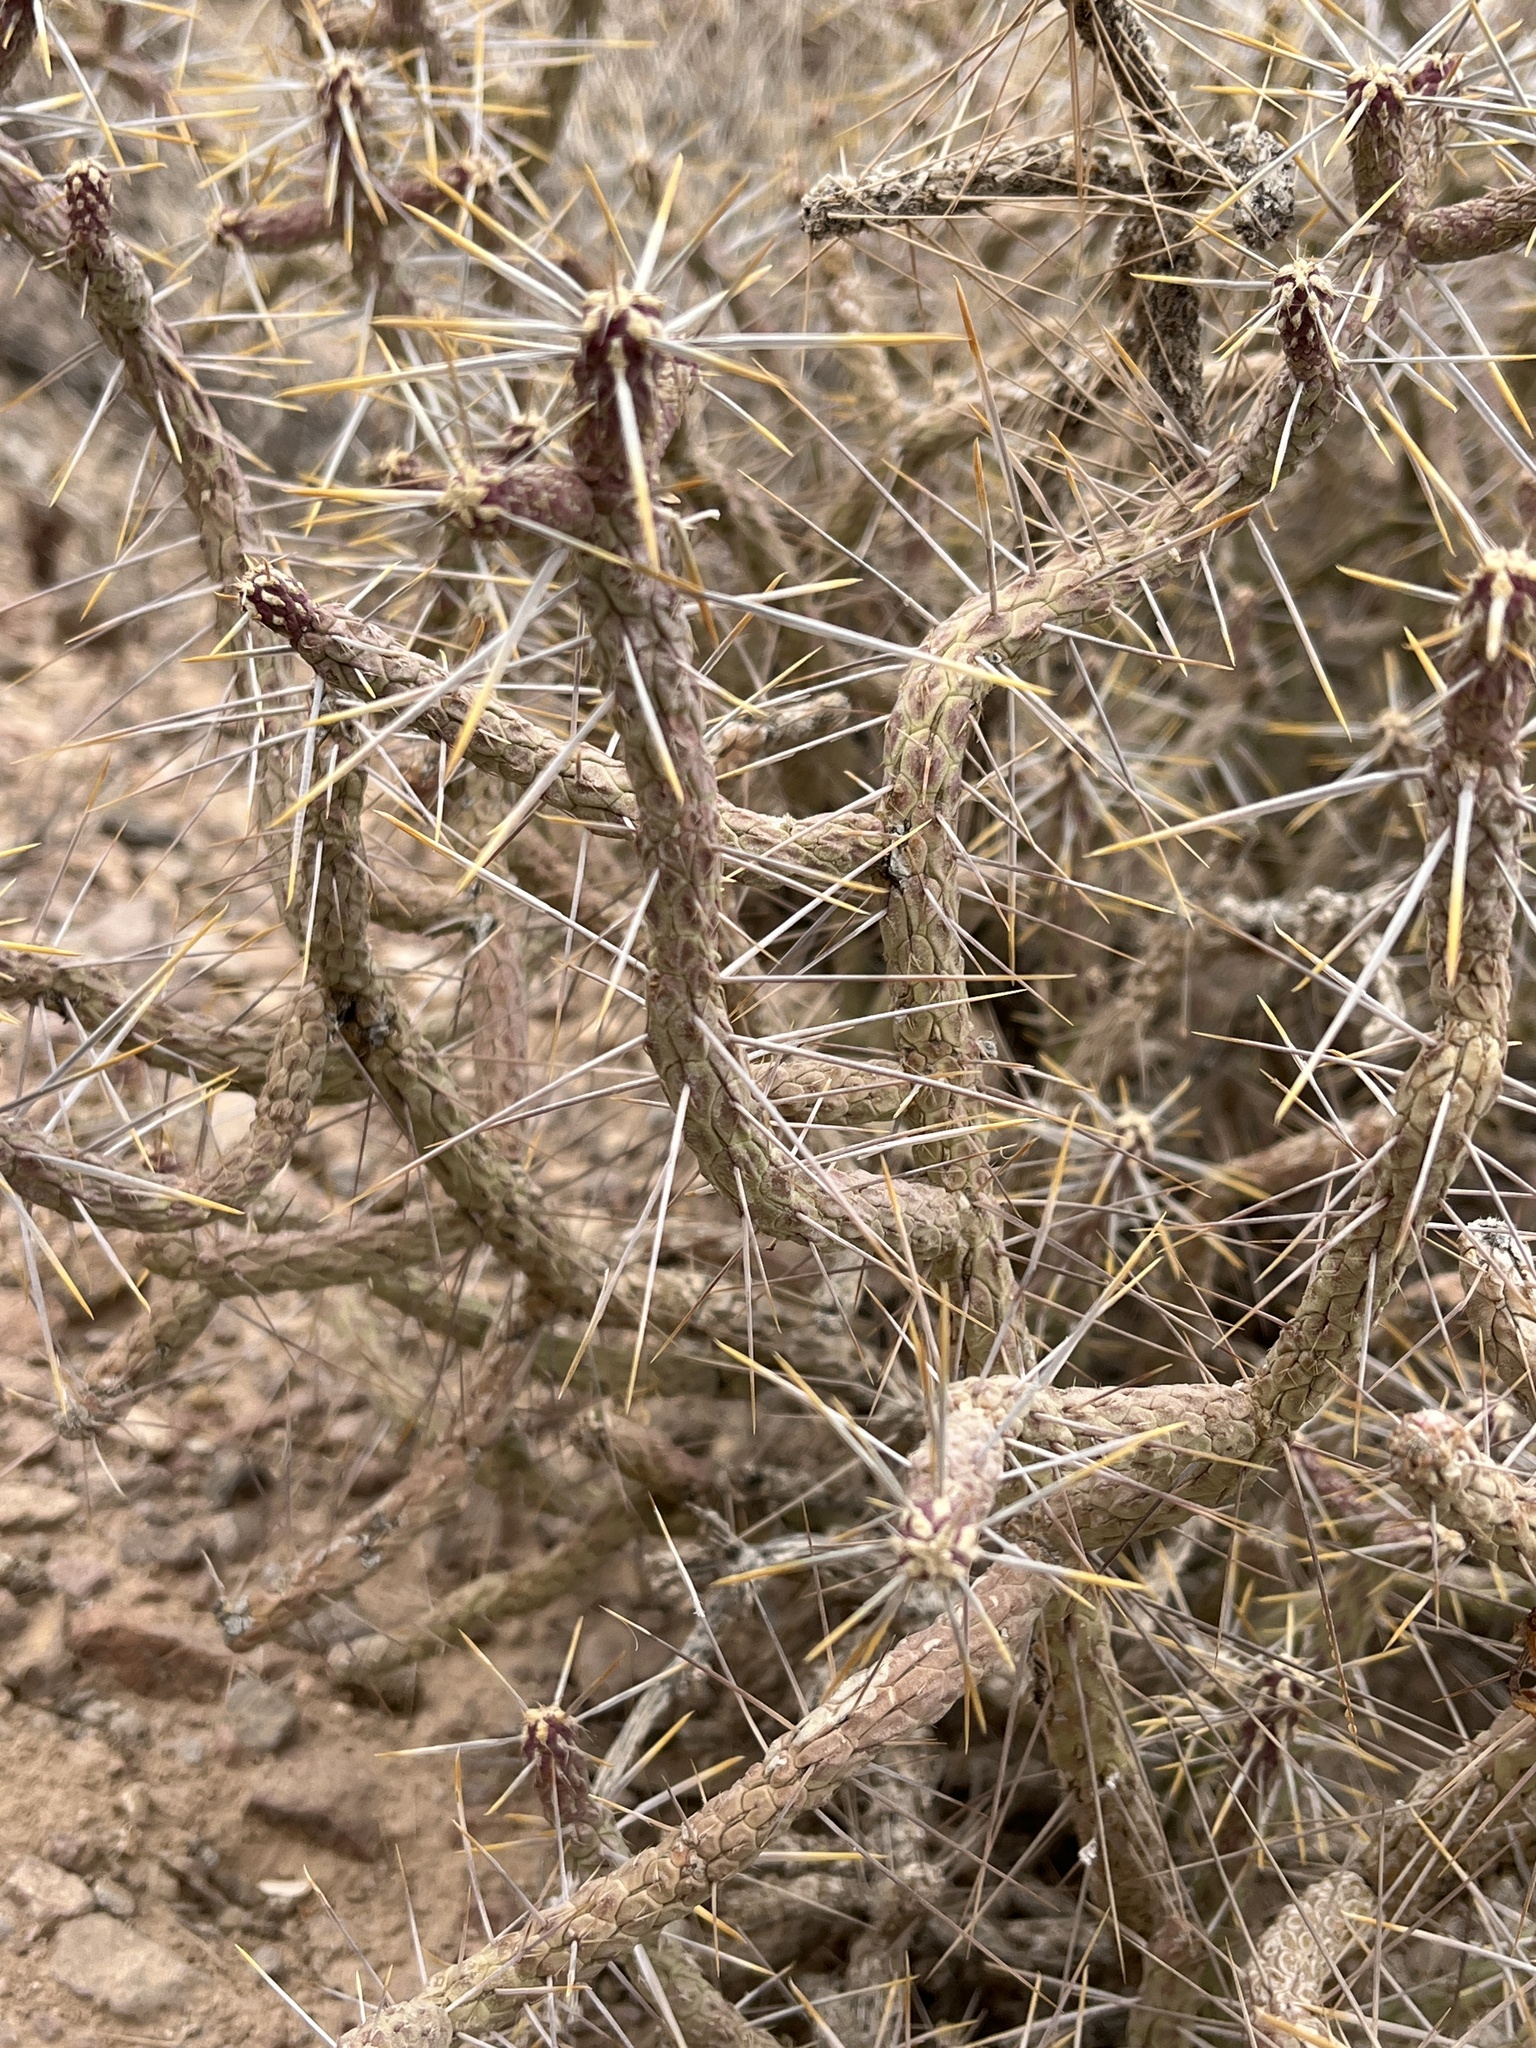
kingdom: Plantae
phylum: Tracheophyta
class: Magnoliopsida
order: Caryophyllales
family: Cactaceae
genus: Cylindropuntia
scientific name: Cylindropuntia ramosissima
